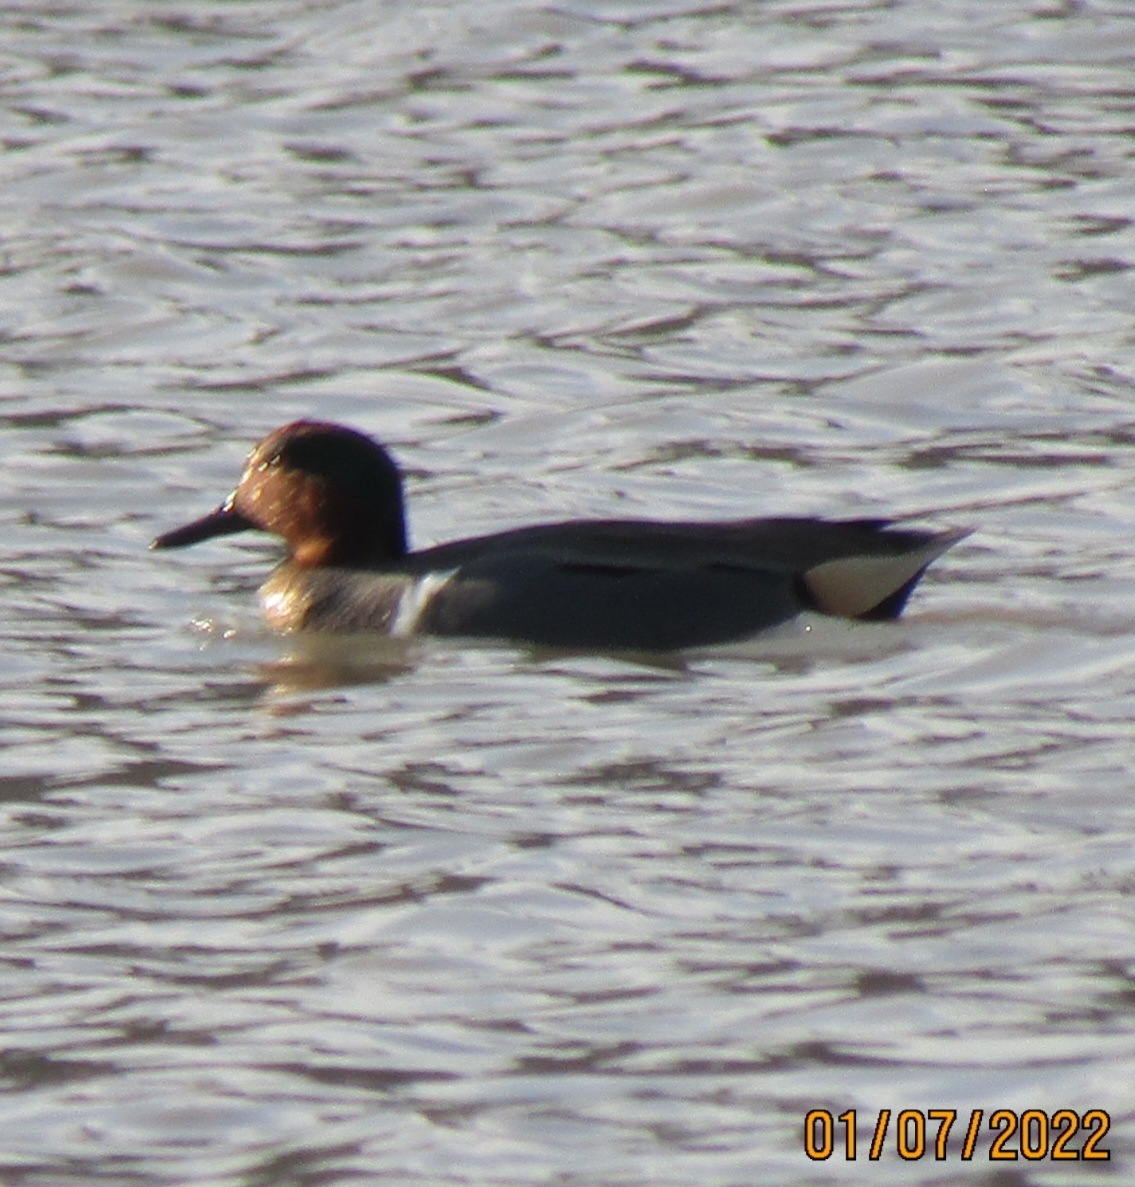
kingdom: Animalia
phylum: Chordata
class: Aves
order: Anseriformes
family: Anatidae
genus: Anas
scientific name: Anas crecca
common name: Eurasian teal
